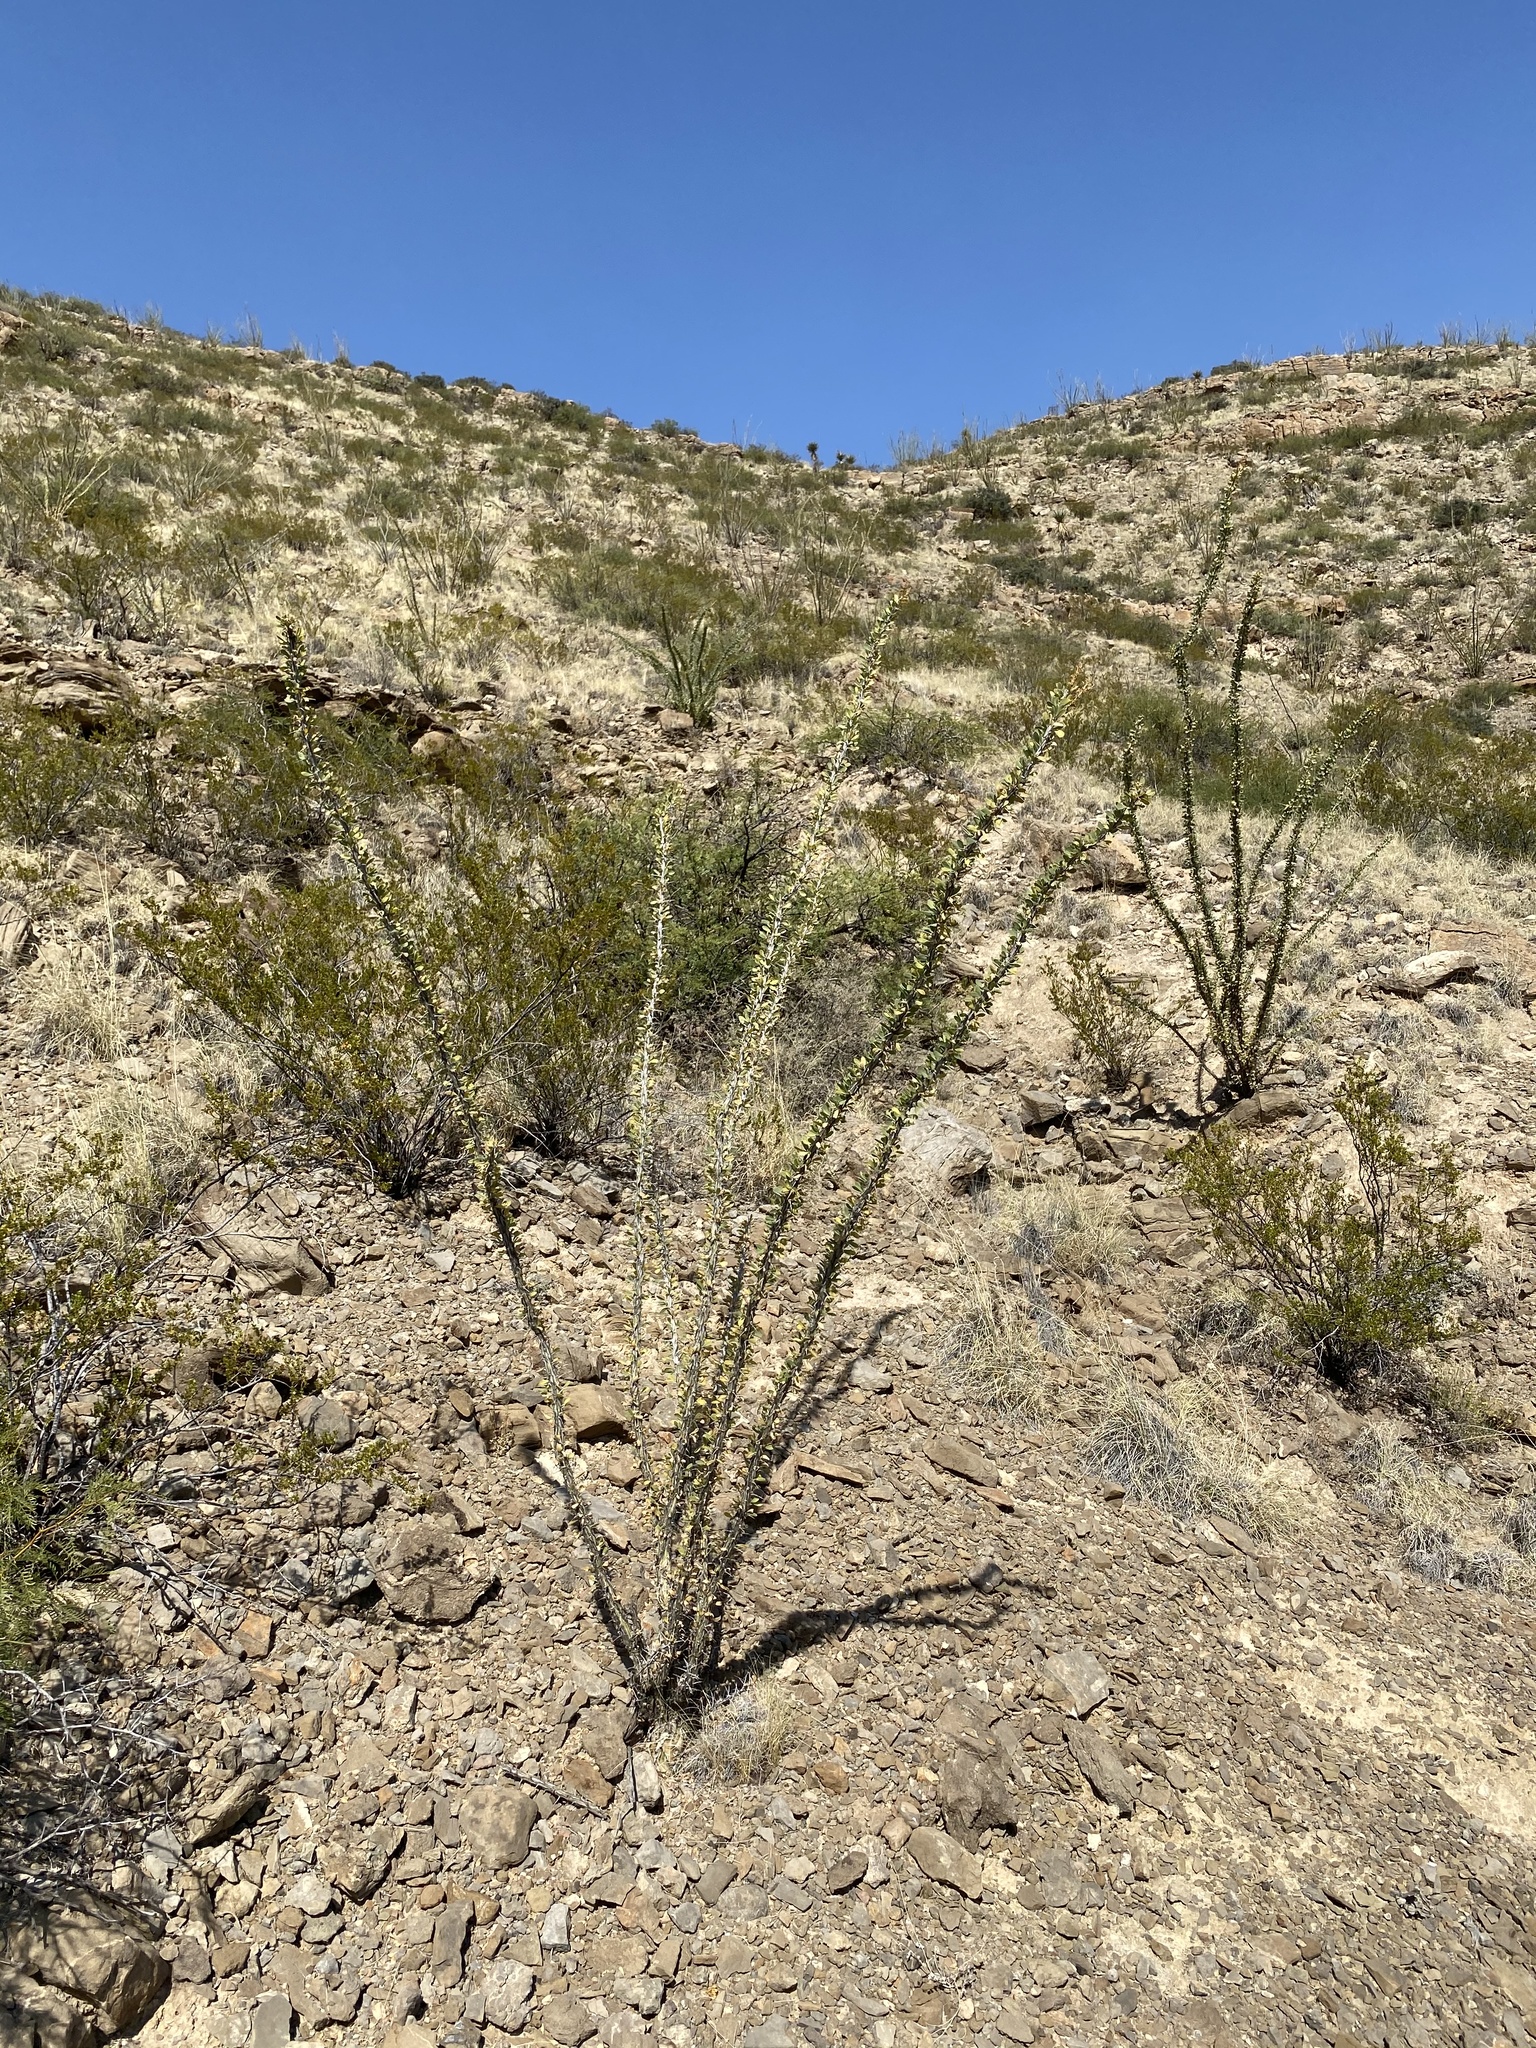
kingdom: Plantae
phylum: Tracheophyta
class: Magnoliopsida
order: Ericales
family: Fouquieriaceae
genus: Fouquieria
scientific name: Fouquieria splendens
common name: Vine-cactus
